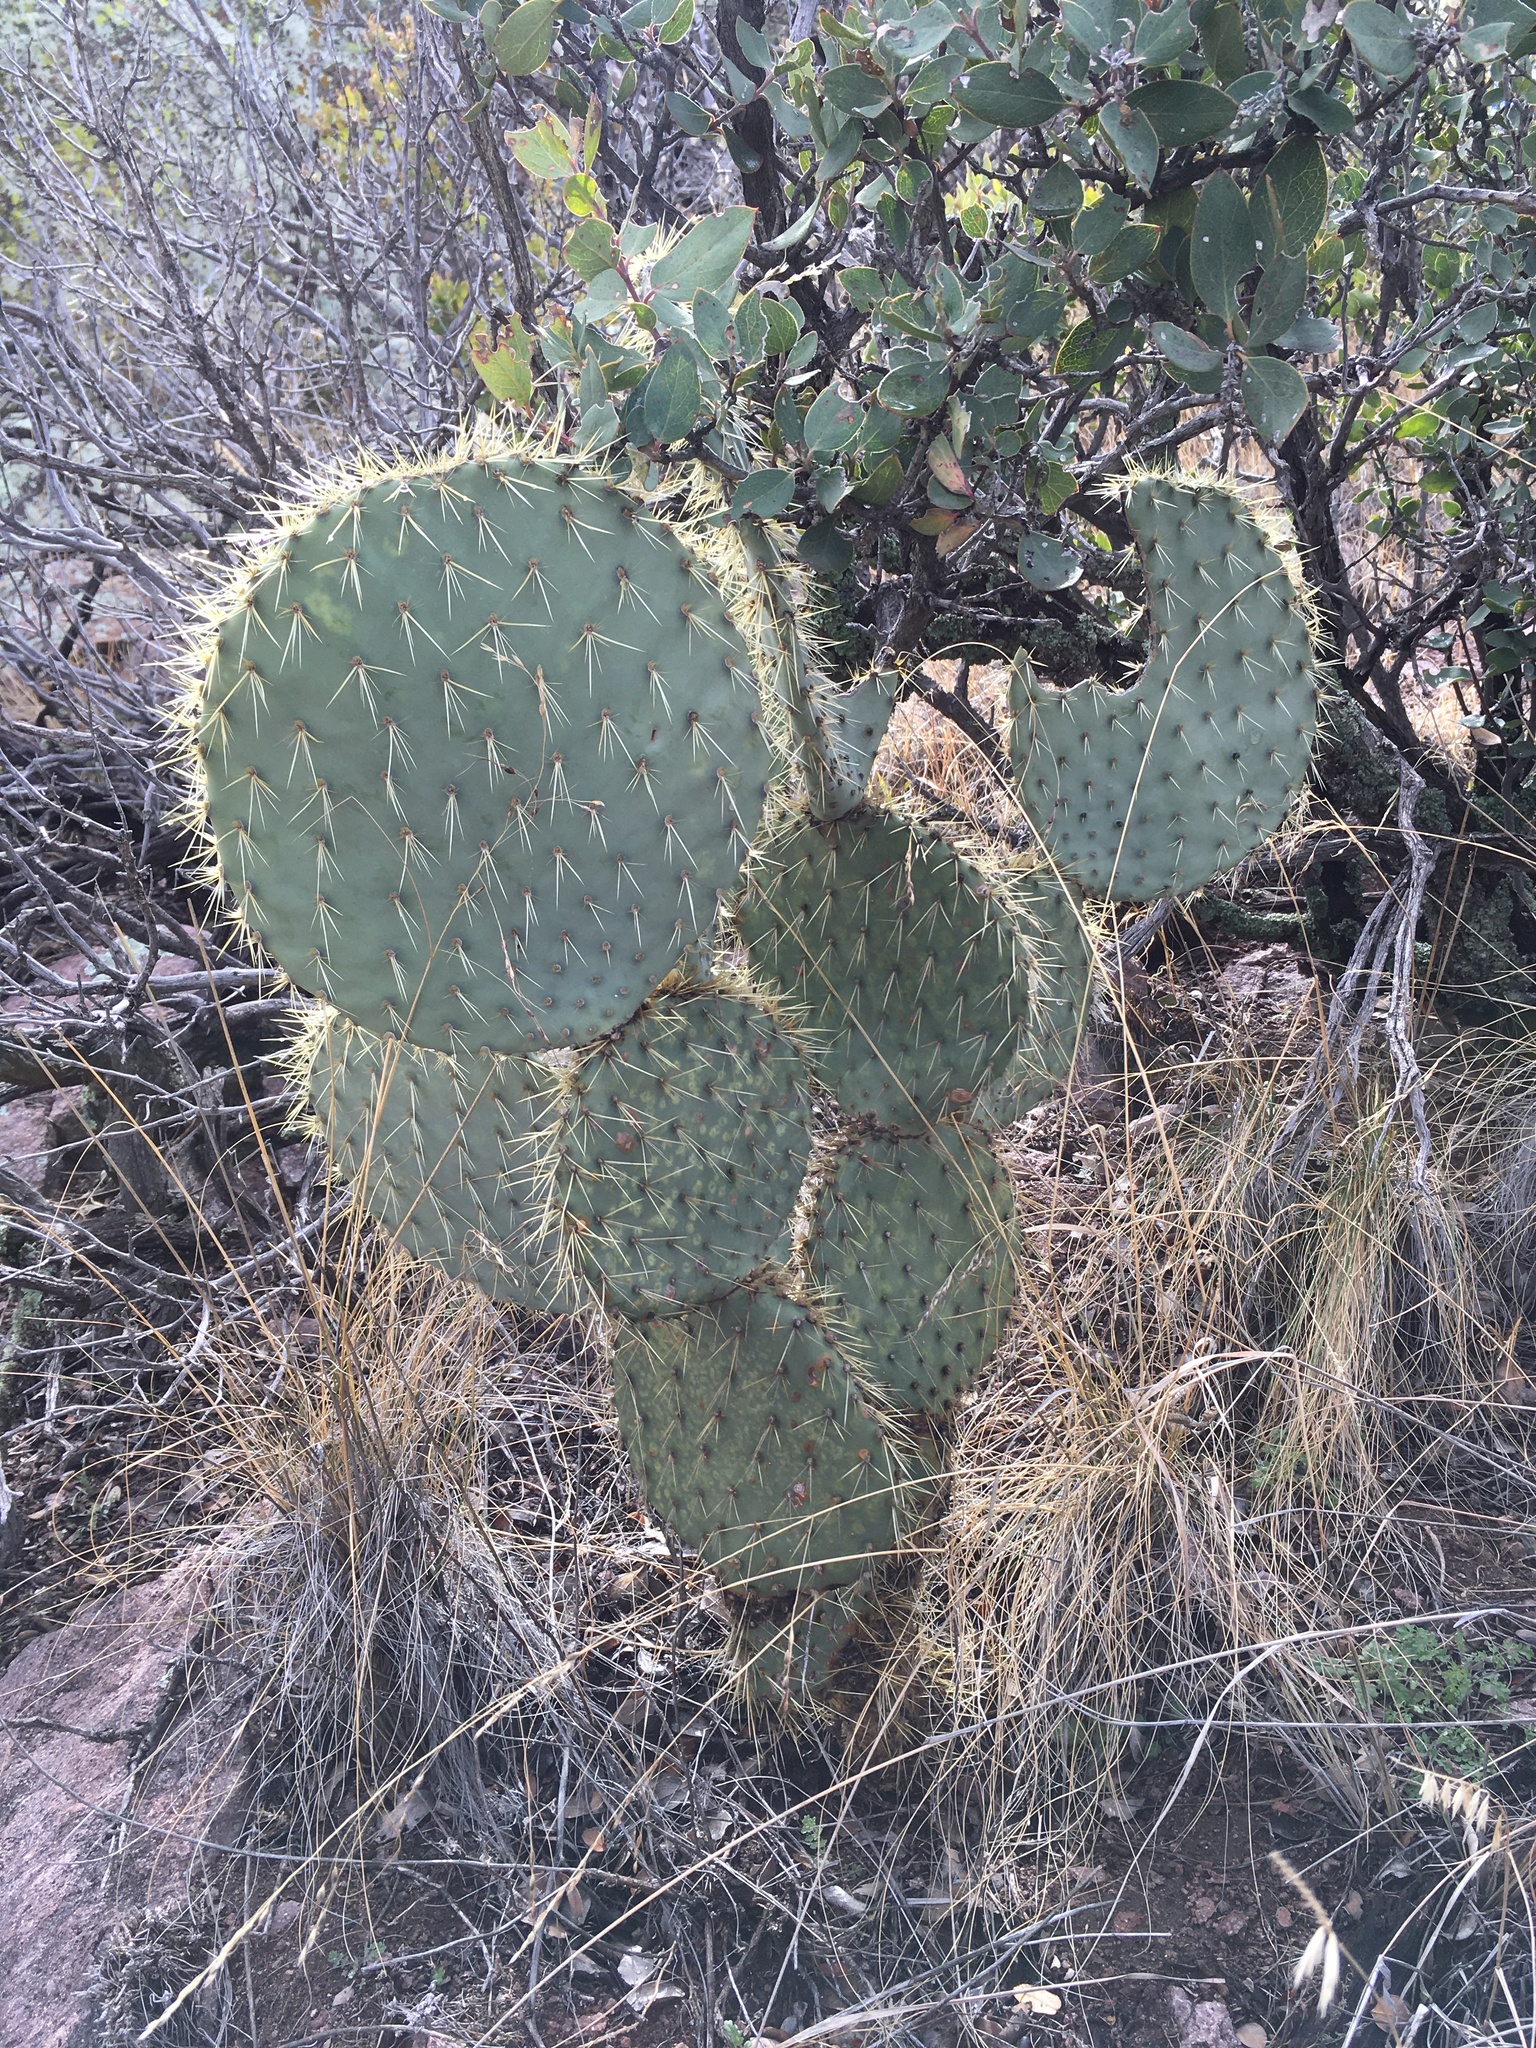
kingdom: Plantae
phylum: Tracheophyta
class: Magnoliopsida
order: Caryophyllales
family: Cactaceae
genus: Opuntia
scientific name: Opuntia chlorotica
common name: Dollar-joint prickly-pear
